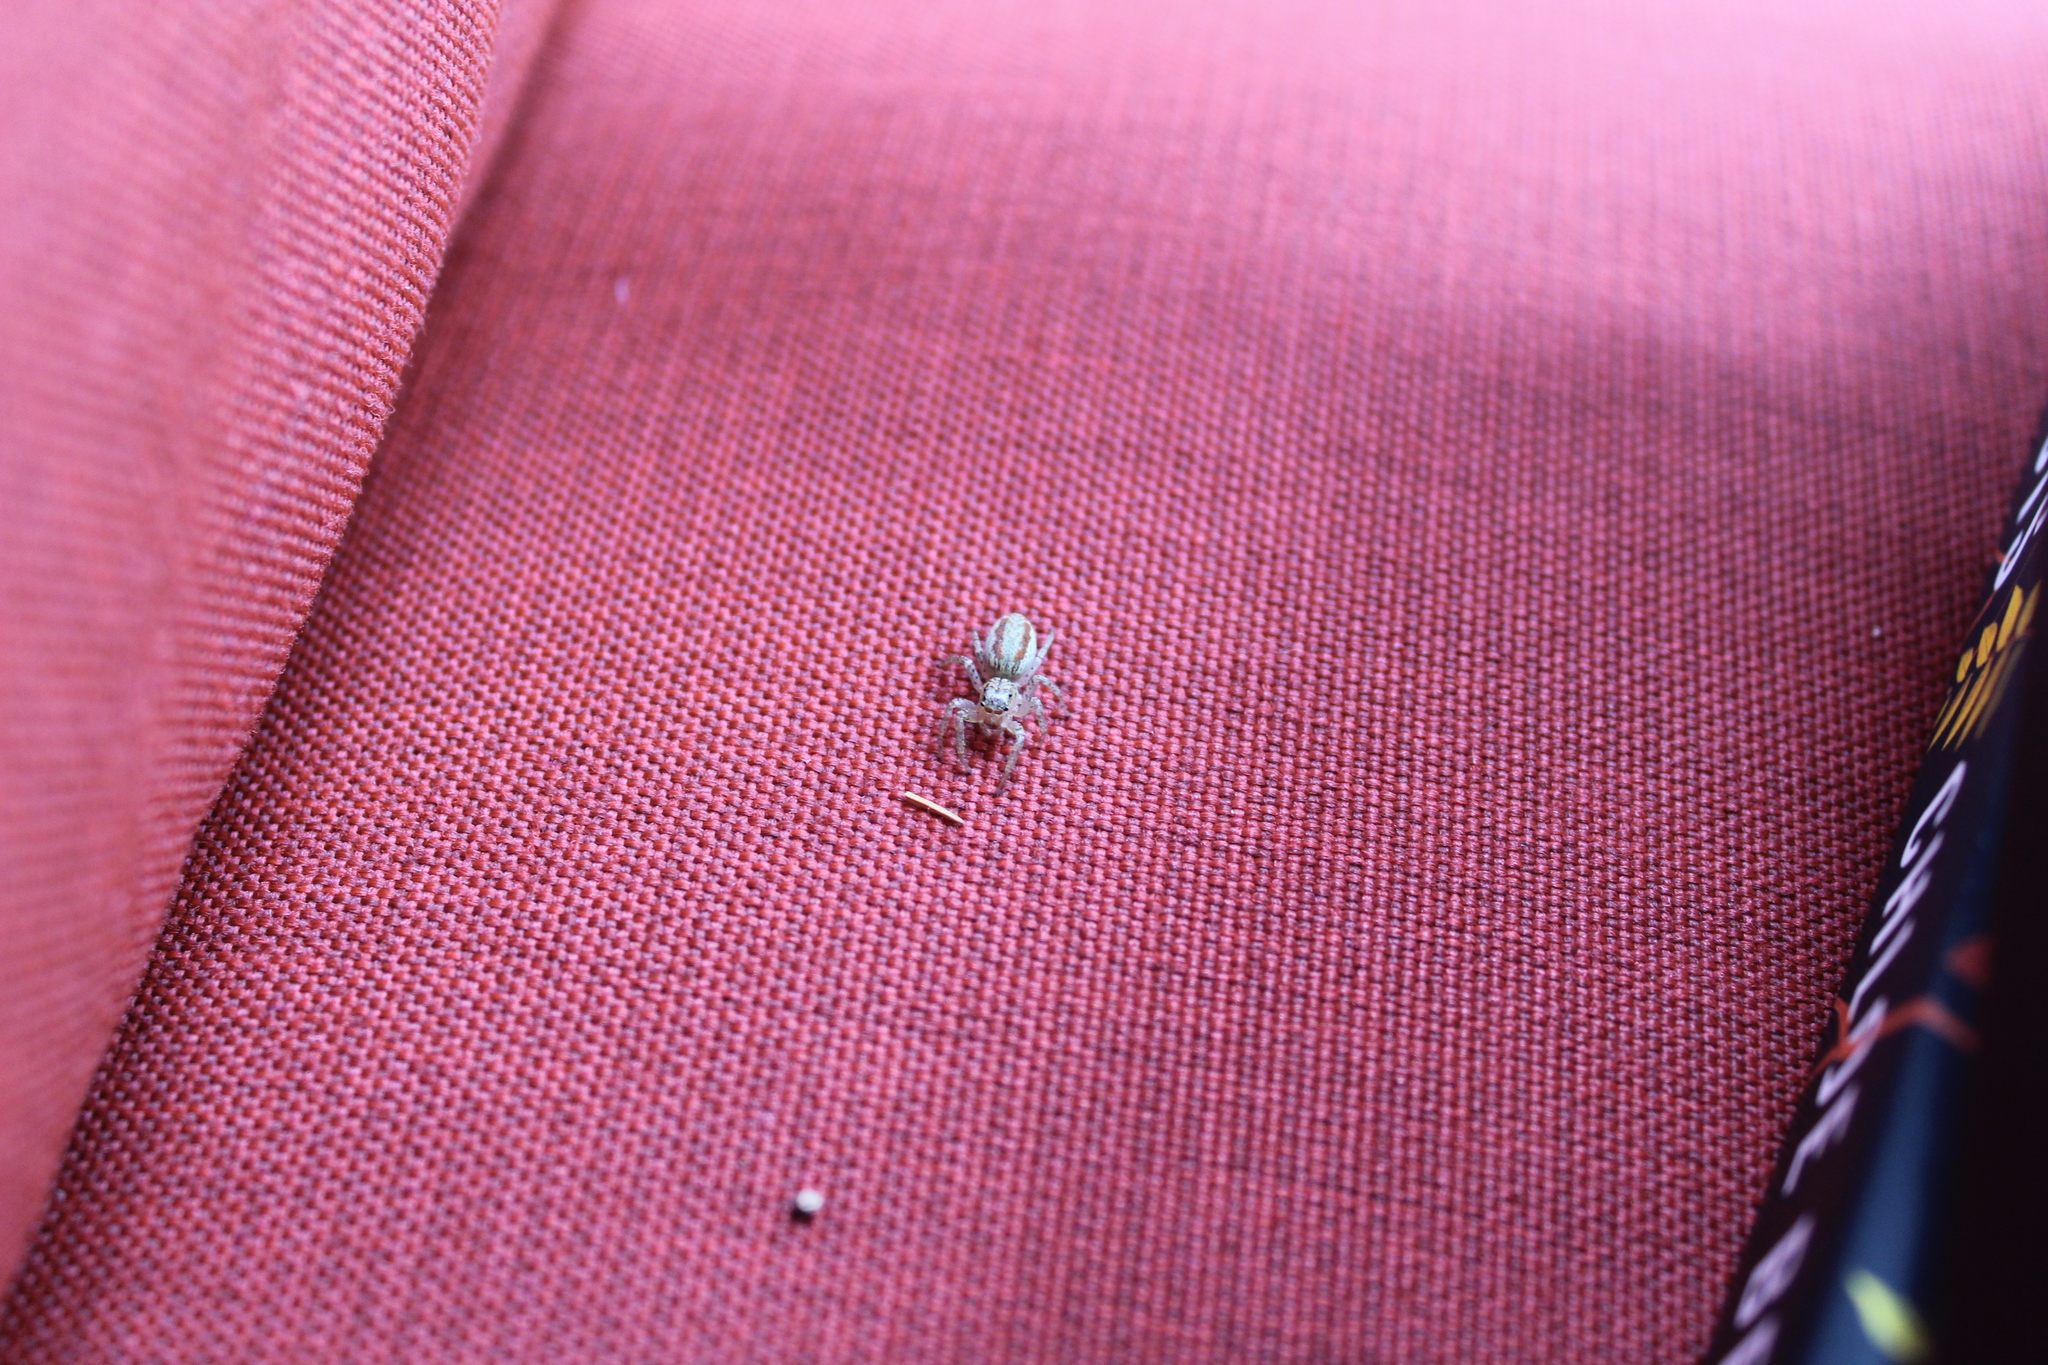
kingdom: Animalia
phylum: Arthropoda
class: Arachnida
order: Araneae
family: Salticidae
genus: Maevia
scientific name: Maevia inclemens
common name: Dimorphic jumper
